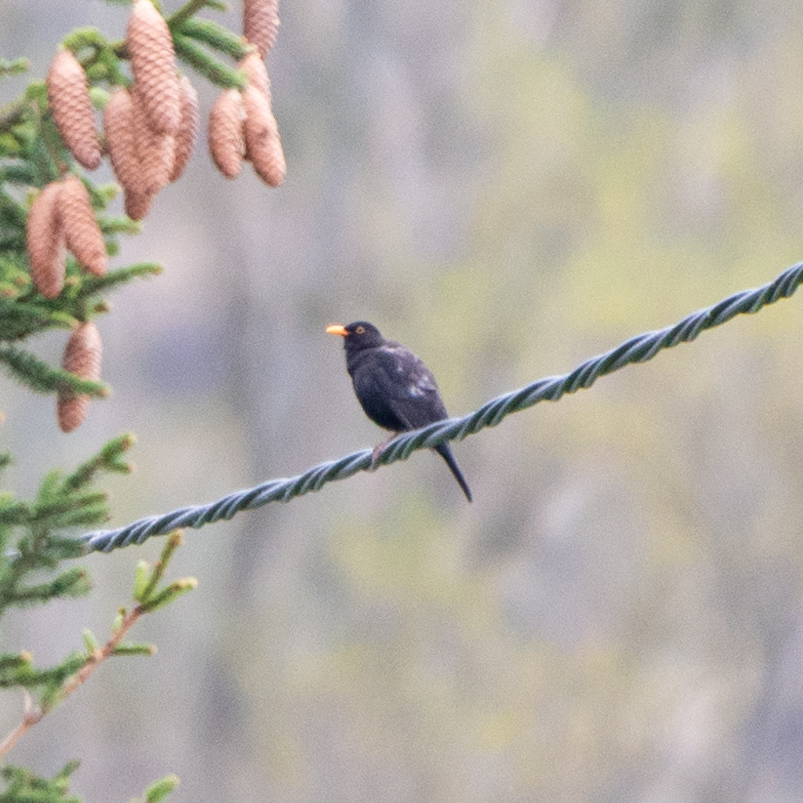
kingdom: Animalia
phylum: Chordata
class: Aves
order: Passeriformes
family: Turdidae
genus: Turdus
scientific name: Turdus merula
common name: Common blackbird
